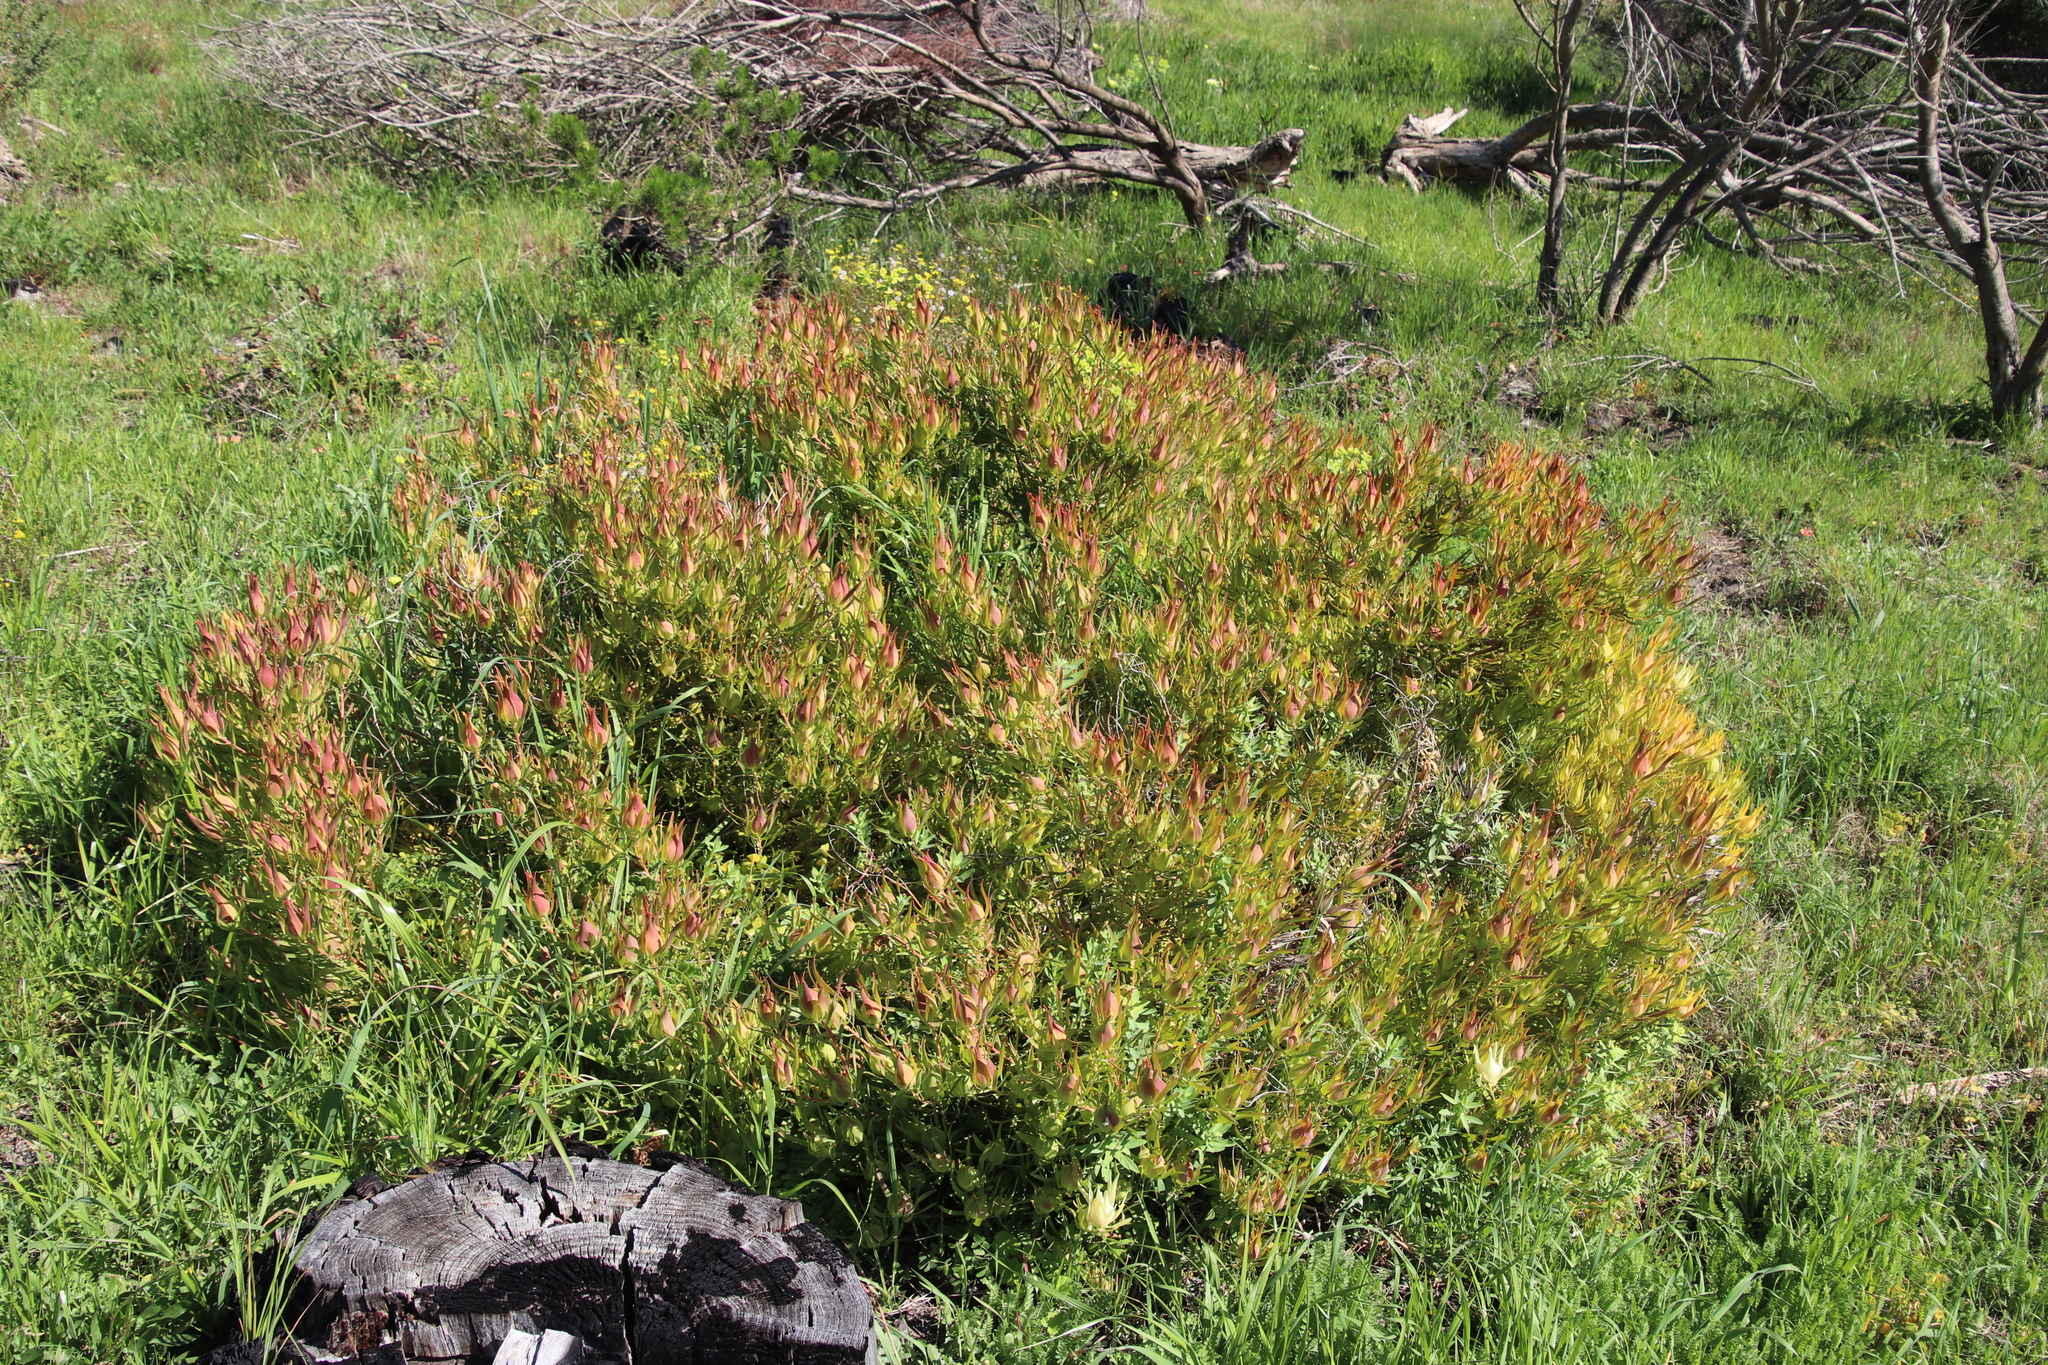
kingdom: Plantae
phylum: Tracheophyta
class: Magnoliopsida
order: Proteales
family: Proteaceae
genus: Leucadendron
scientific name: Leucadendron salignum
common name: Common sunshine conebush
